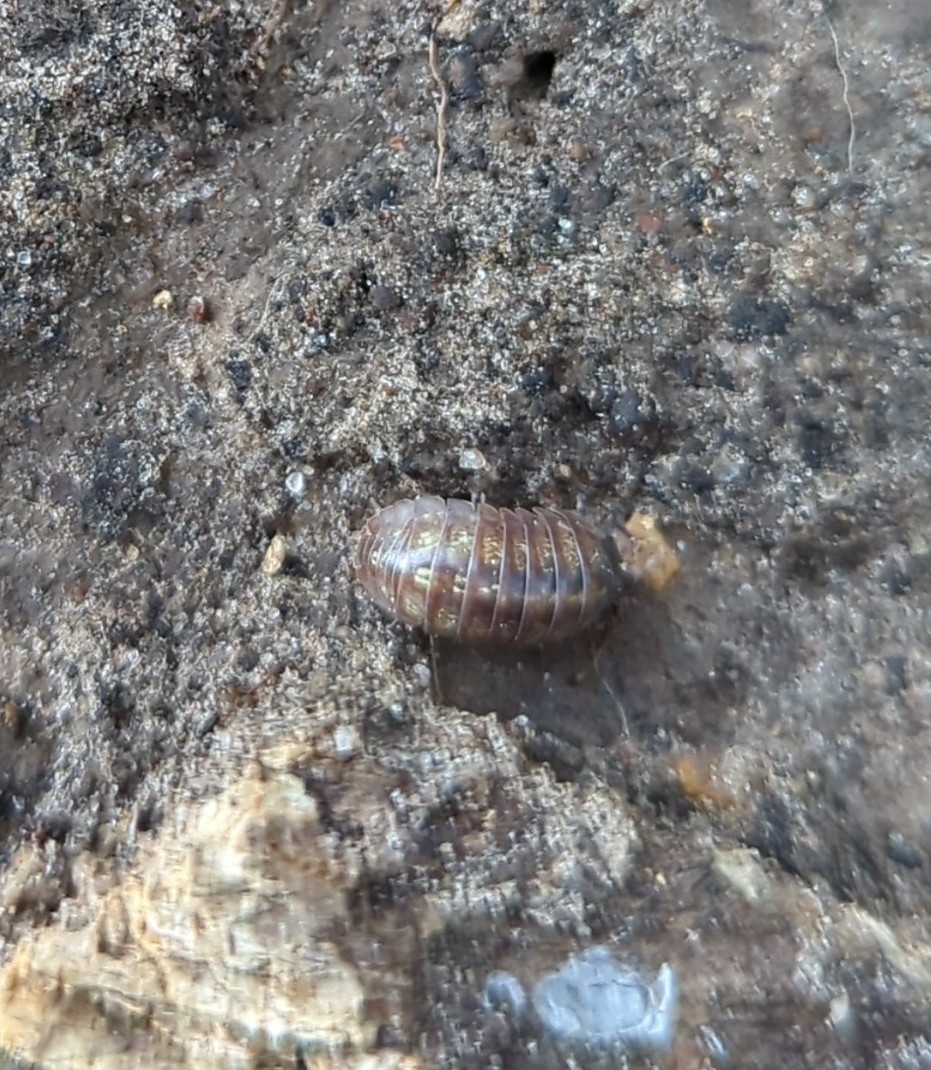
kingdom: Animalia
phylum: Arthropoda
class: Malacostraca
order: Isopoda
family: Armadillidiidae
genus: Armadillidium
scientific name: Armadillidium vulgare
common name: Common pill woodlouse
